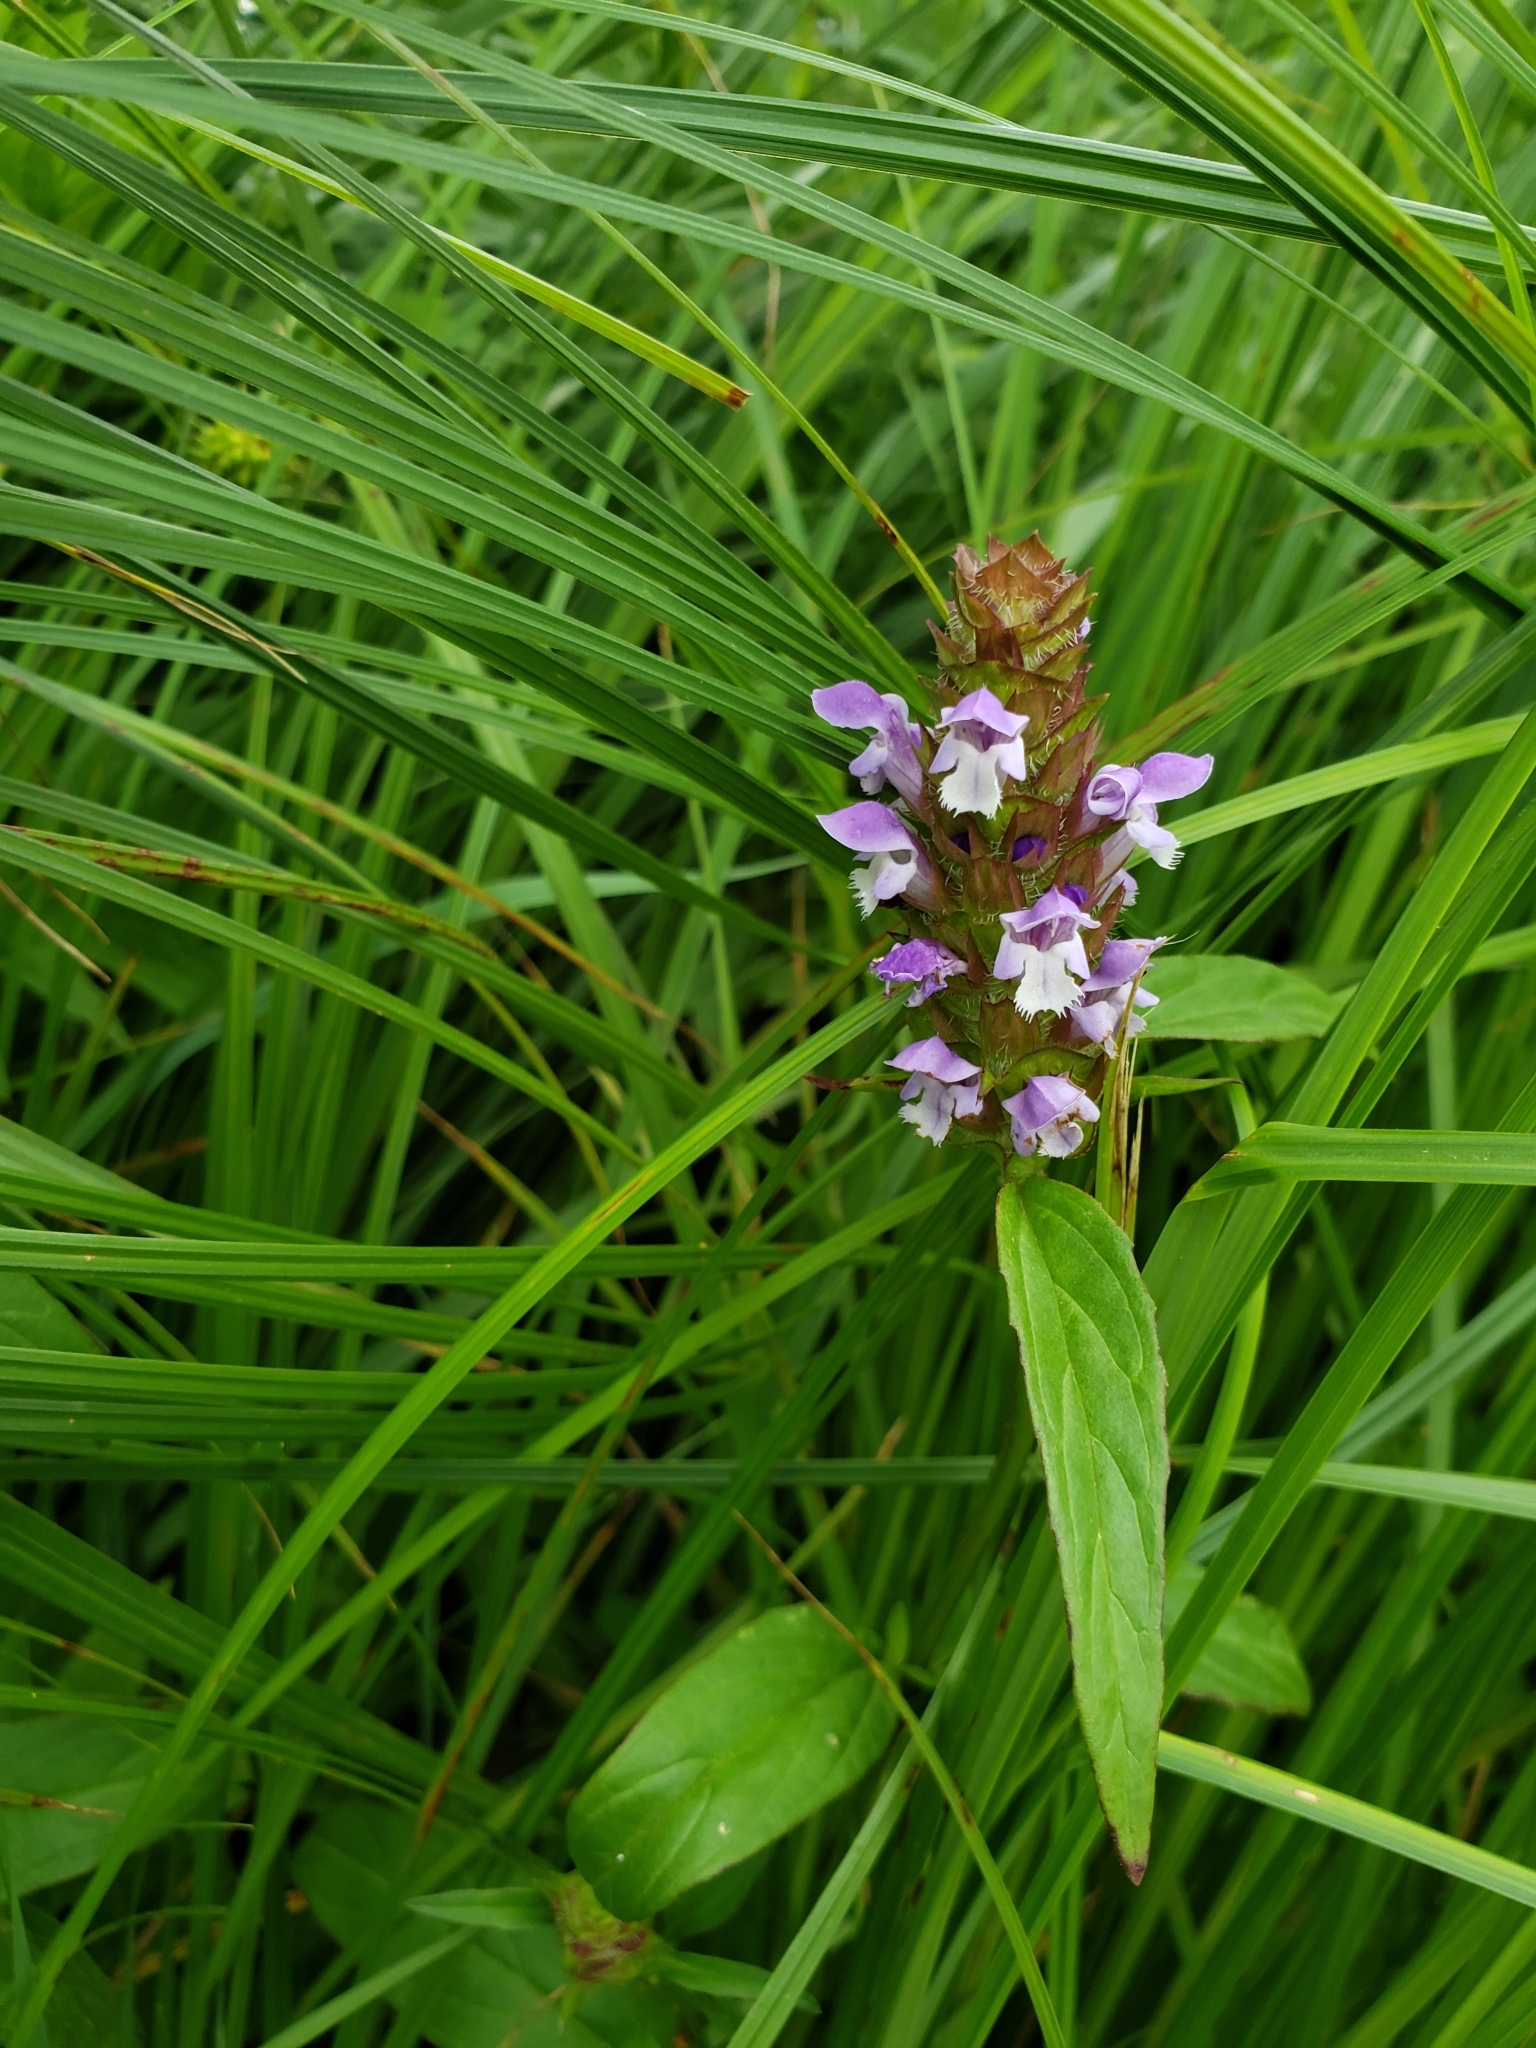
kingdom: Plantae
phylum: Tracheophyta
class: Magnoliopsida
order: Lamiales
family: Lamiaceae
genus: Prunella
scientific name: Prunella vulgaris
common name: Heal-all
